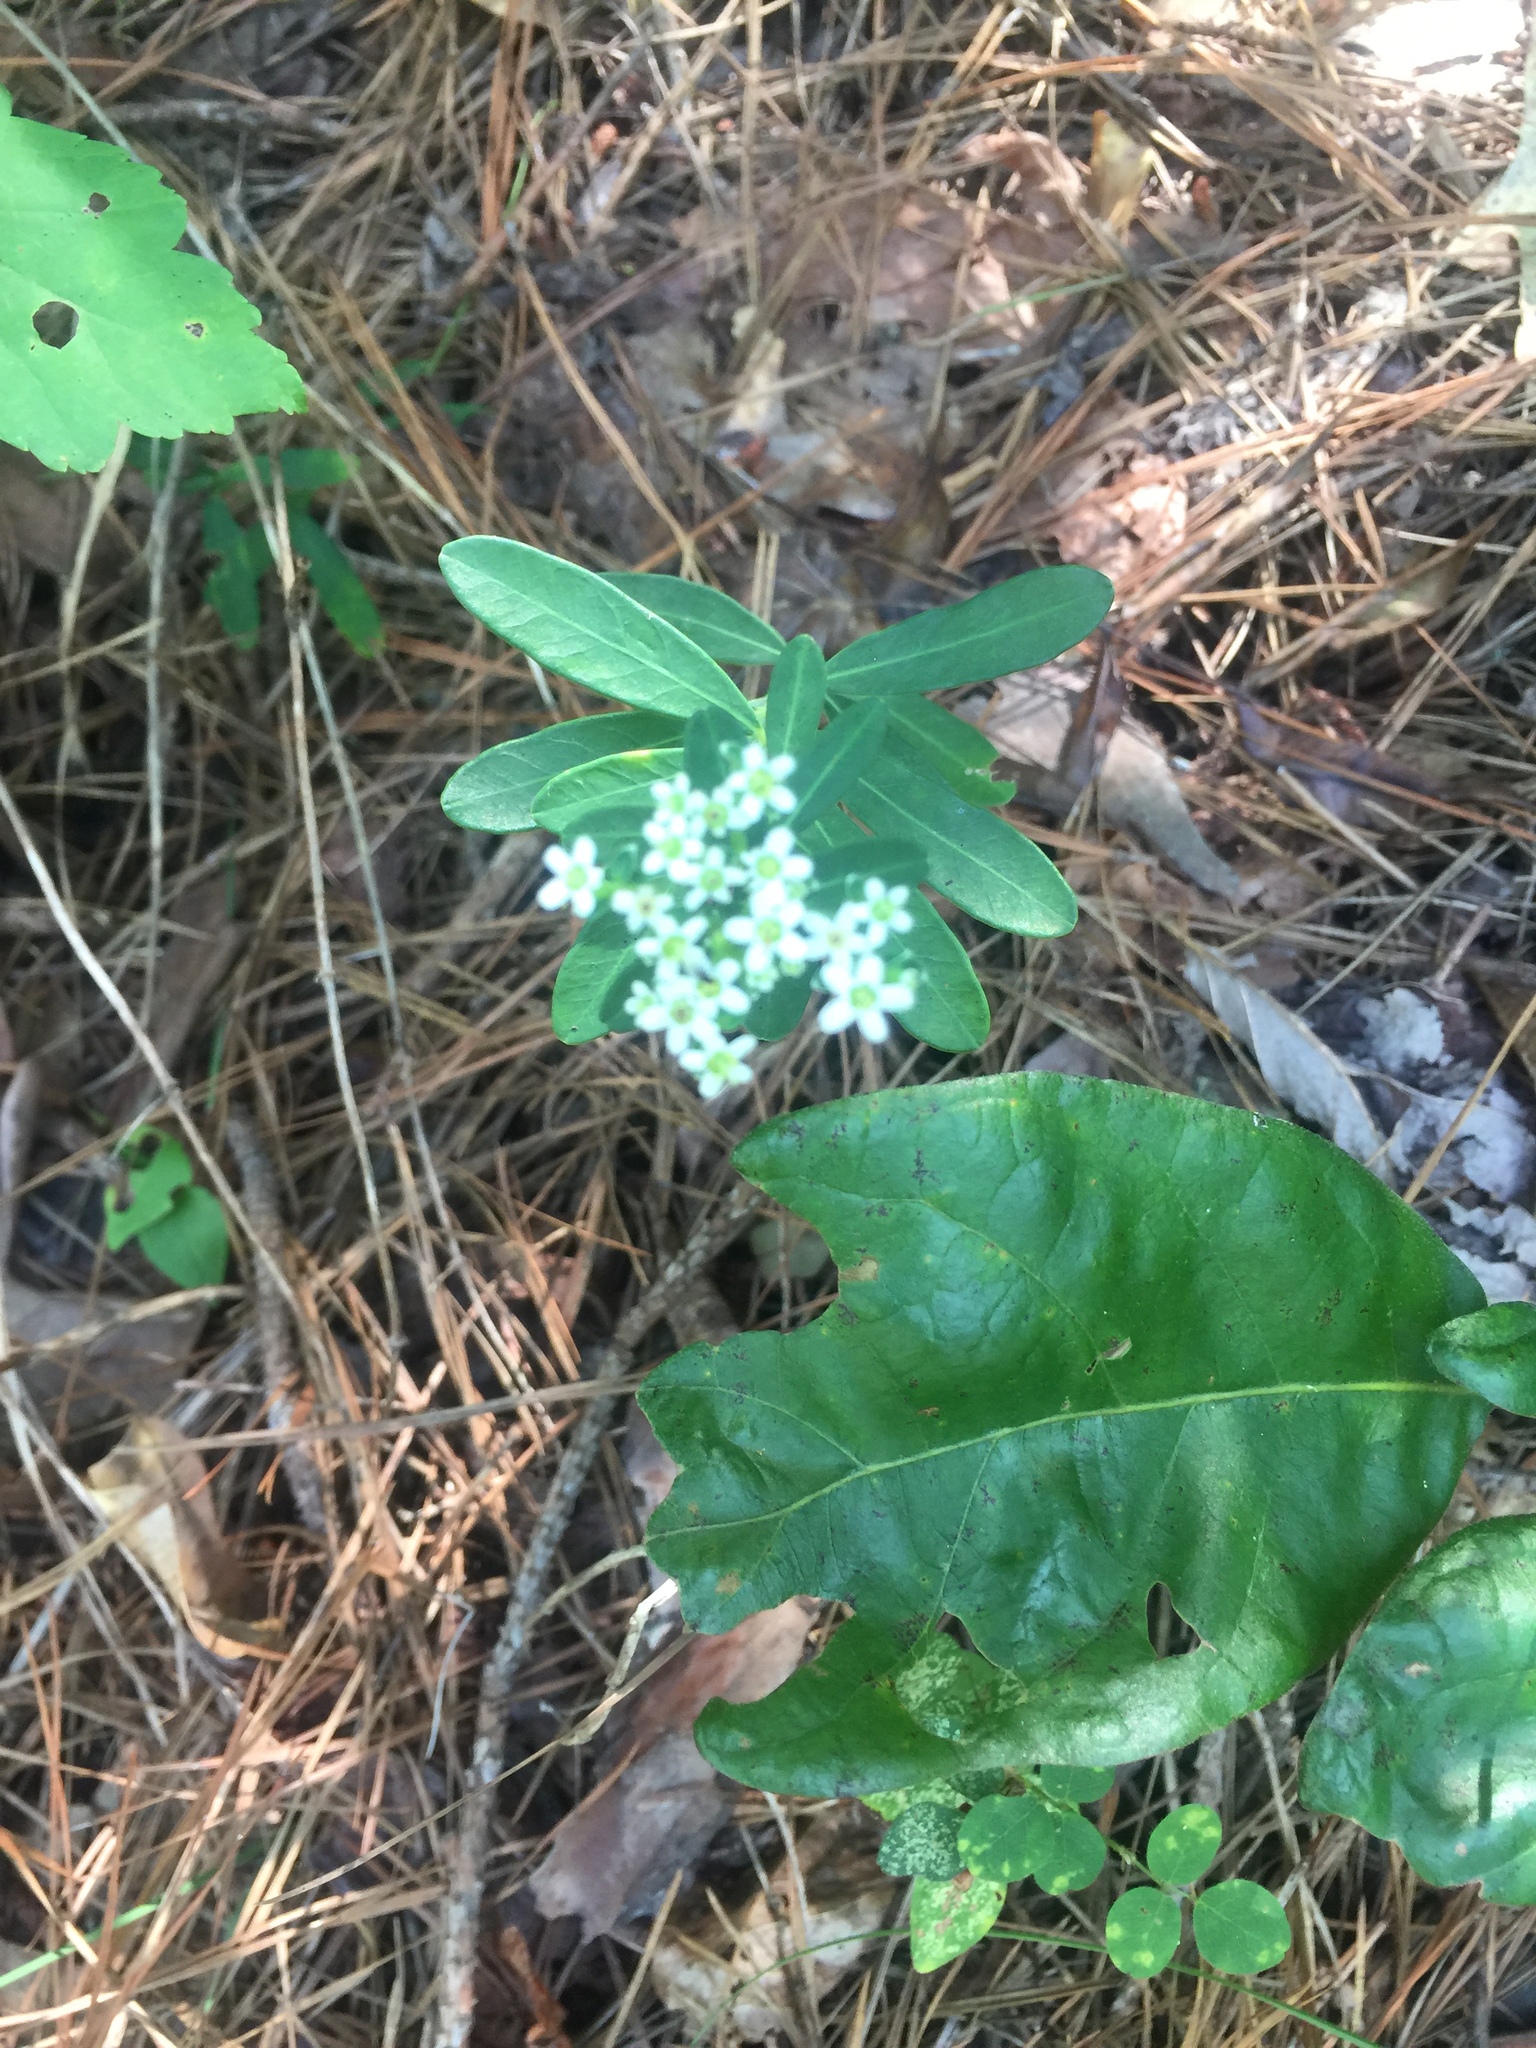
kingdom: Plantae
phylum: Tracheophyta
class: Magnoliopsida
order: Malpighiales
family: Euphorbiaceae
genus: Euphorbia
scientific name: Euphorbia corollata
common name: Flowering spurge
